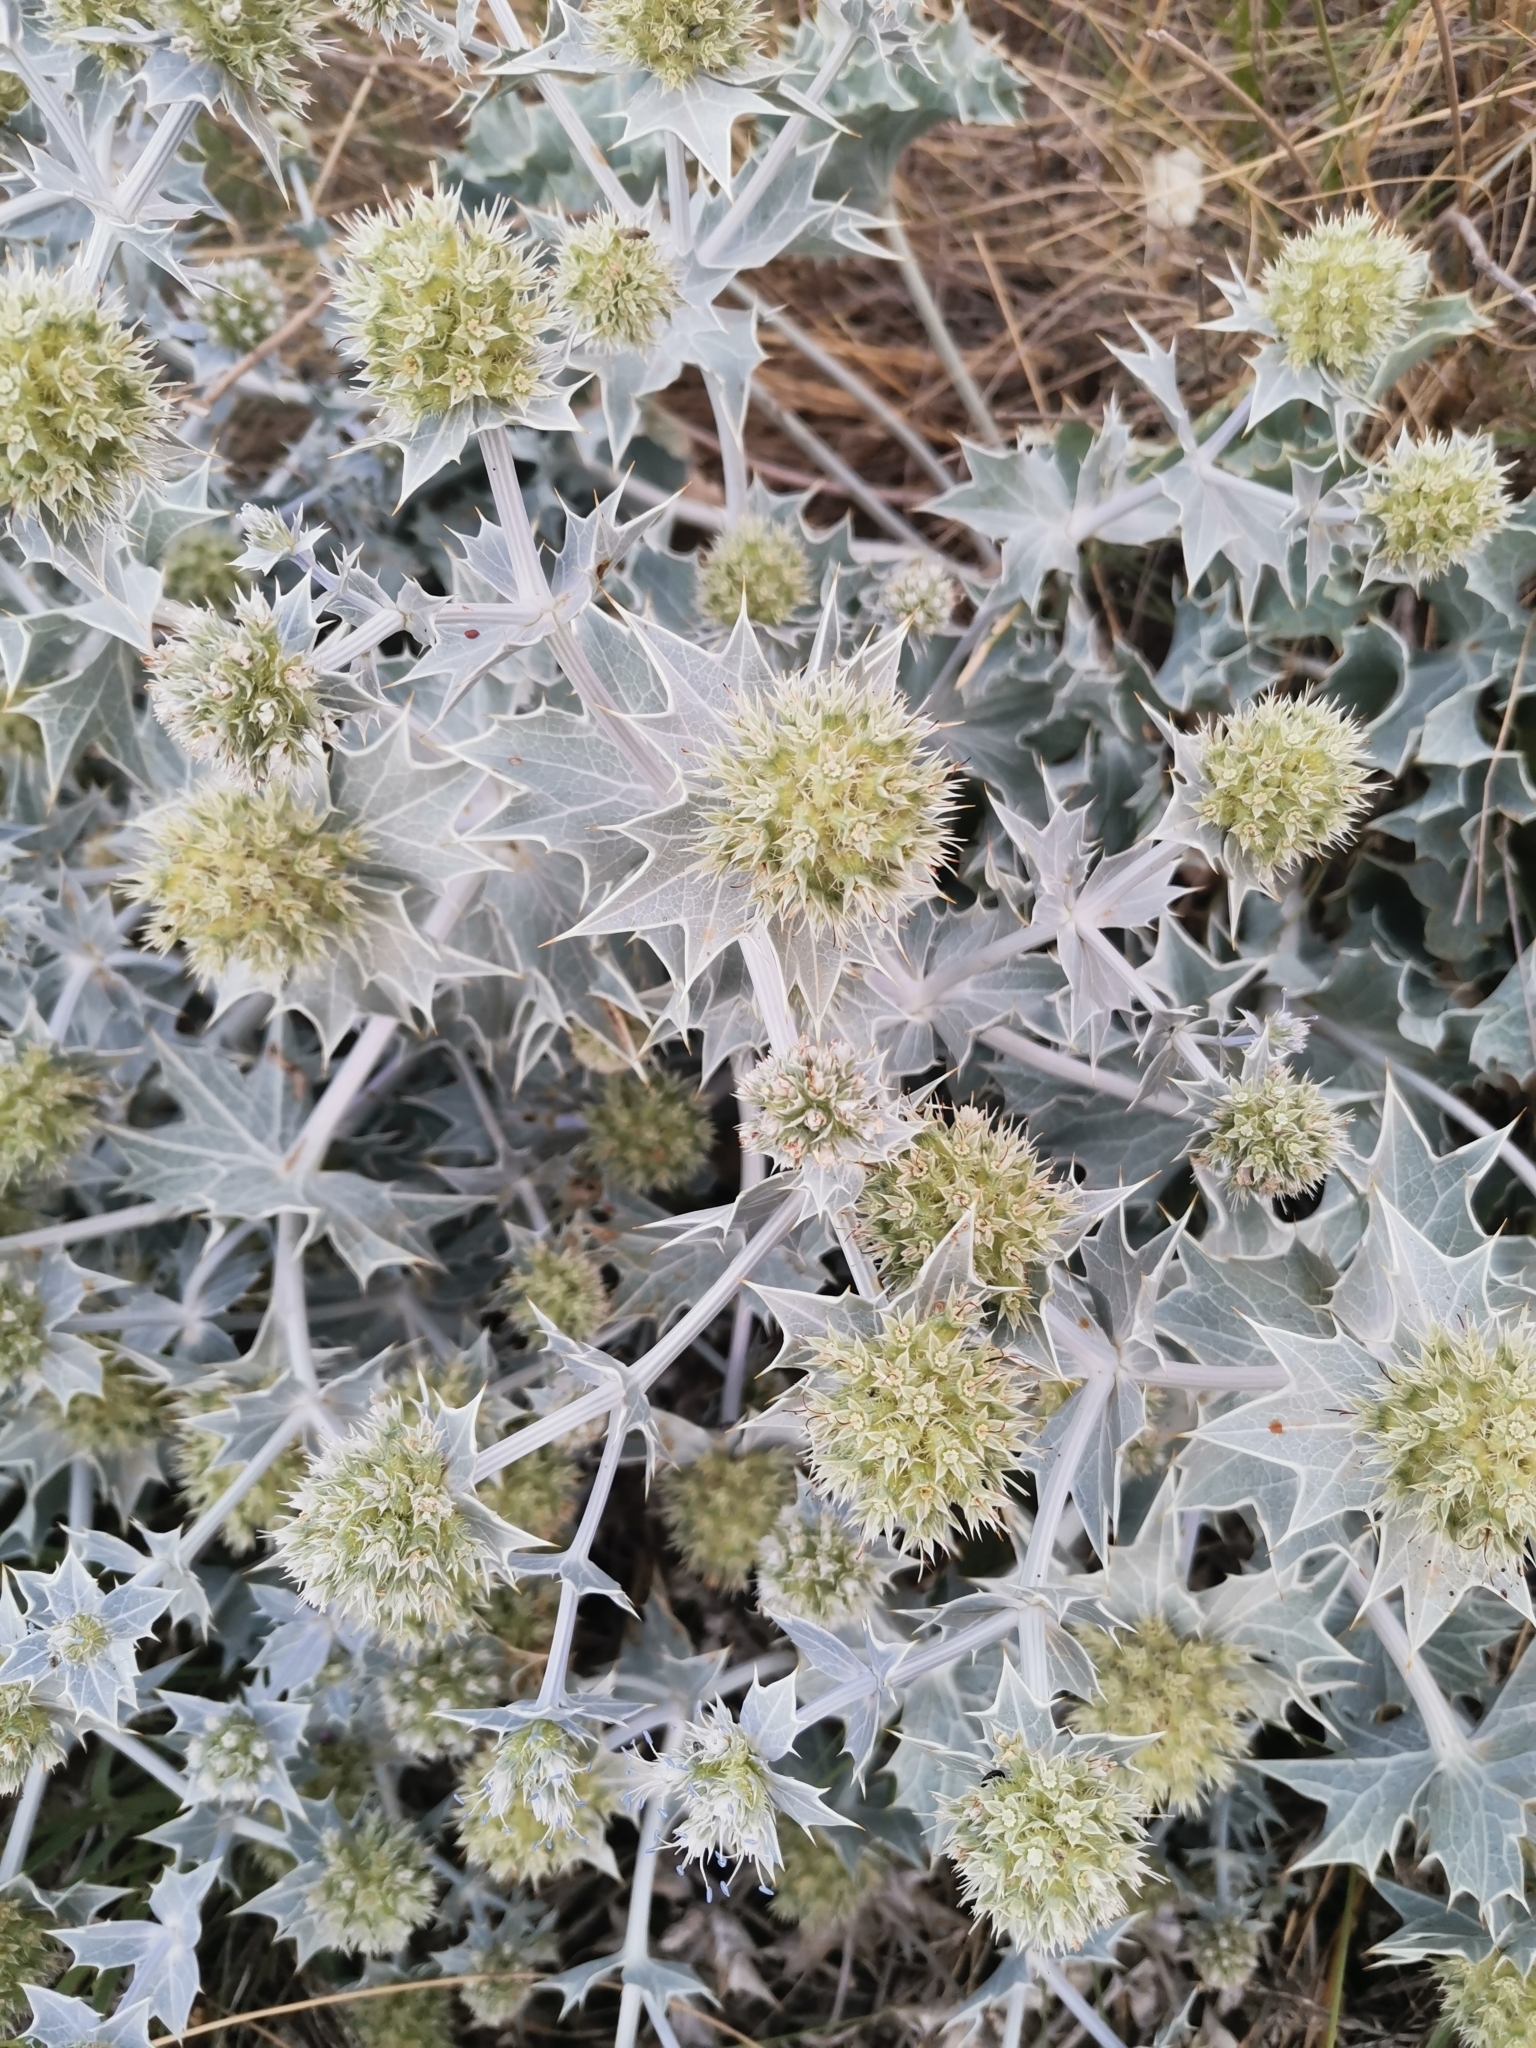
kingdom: Plantae
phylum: Tracheophyta
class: Magnoliopsida
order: Apiales
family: Apiaceae
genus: Eryngium
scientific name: Eryngium maritimum
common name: Sea-holly
